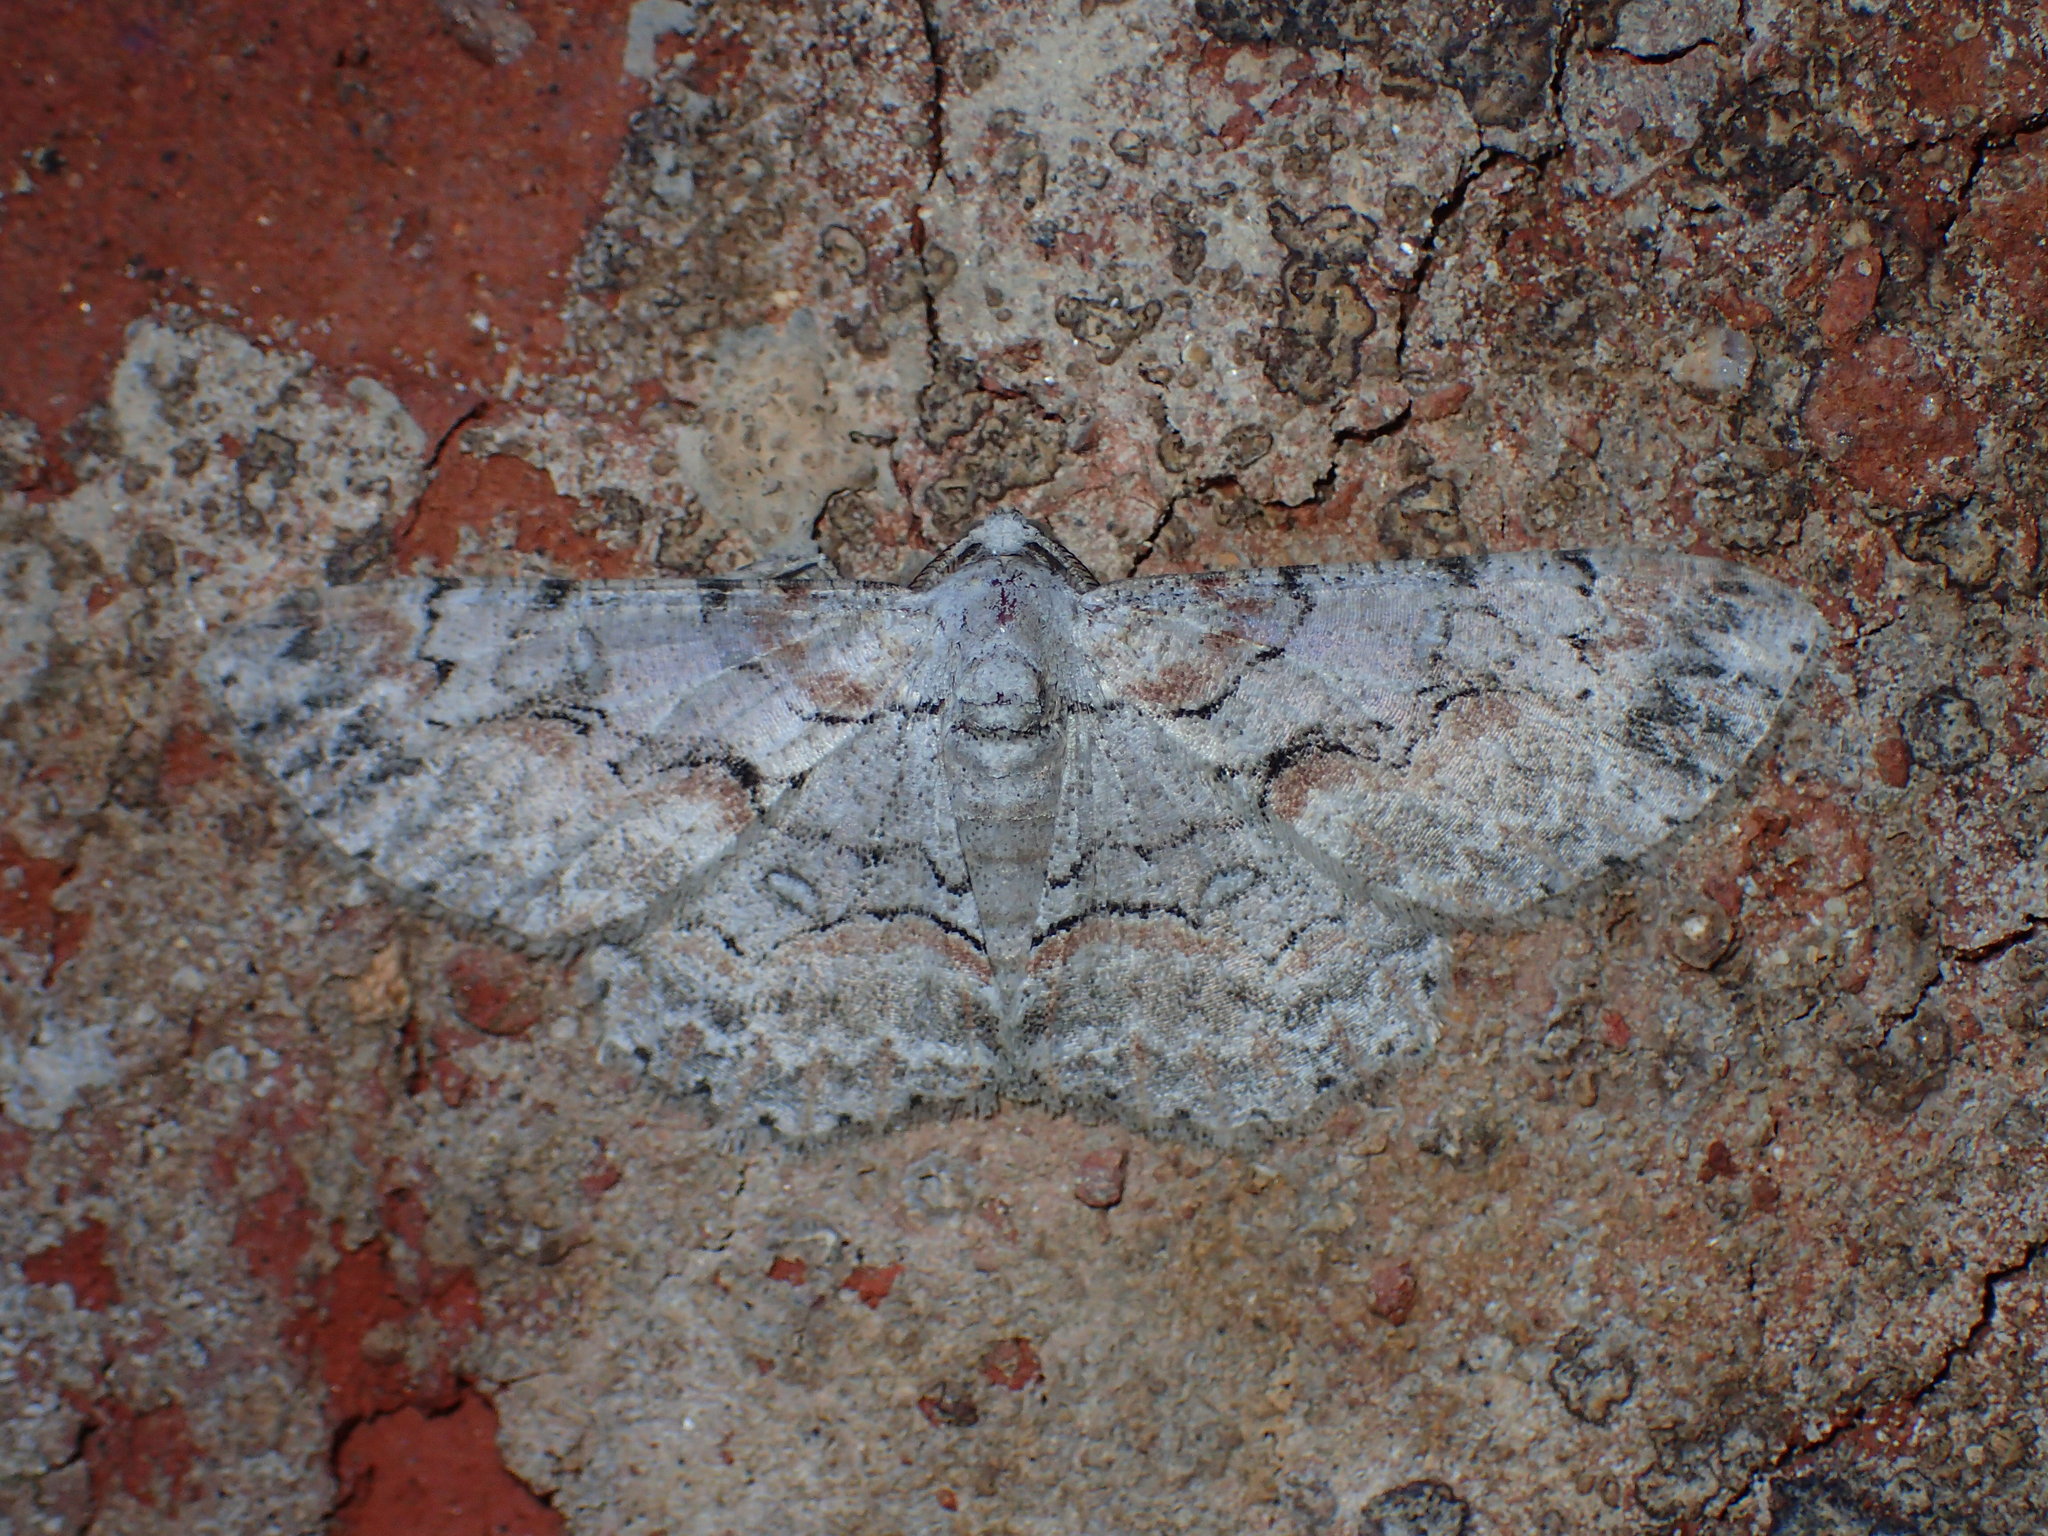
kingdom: Animalia
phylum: Arthropoda
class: Insecta
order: Lepidoptera
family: Geometridae
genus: Iridopsis
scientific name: Iridopsis defectaria
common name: Brown-shaded gray
